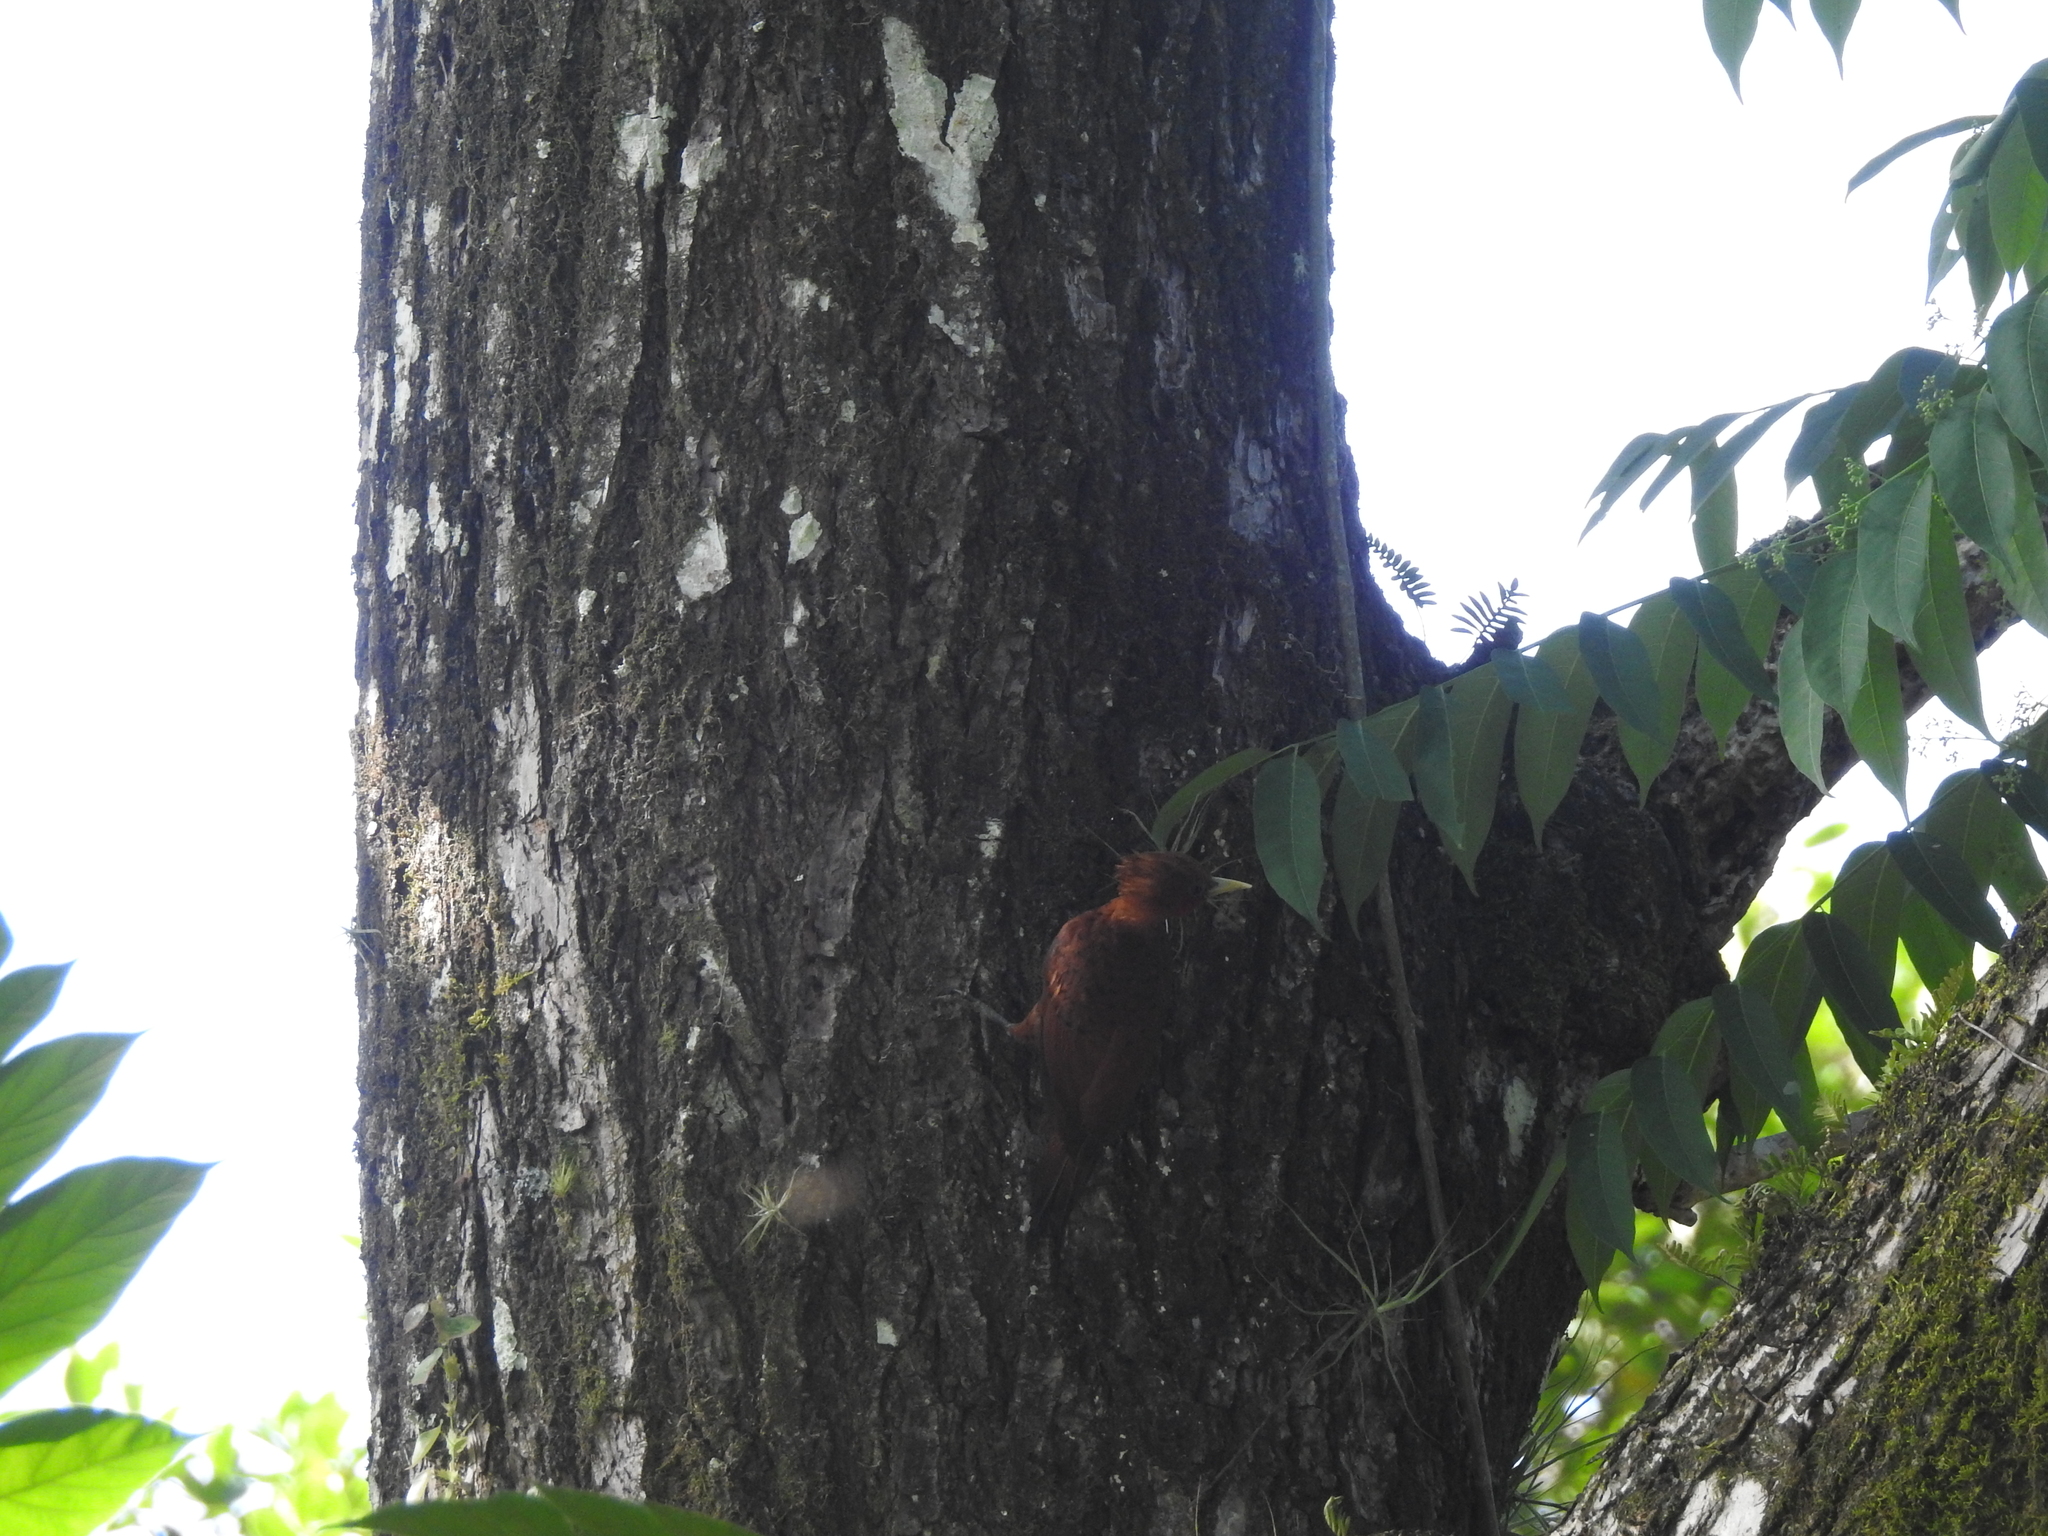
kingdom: Animalia
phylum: Chordata
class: Aves
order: Piciformes
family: Picidae
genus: Celeus
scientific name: Celeus castaneus
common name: Chestnut-colored woodpecker
